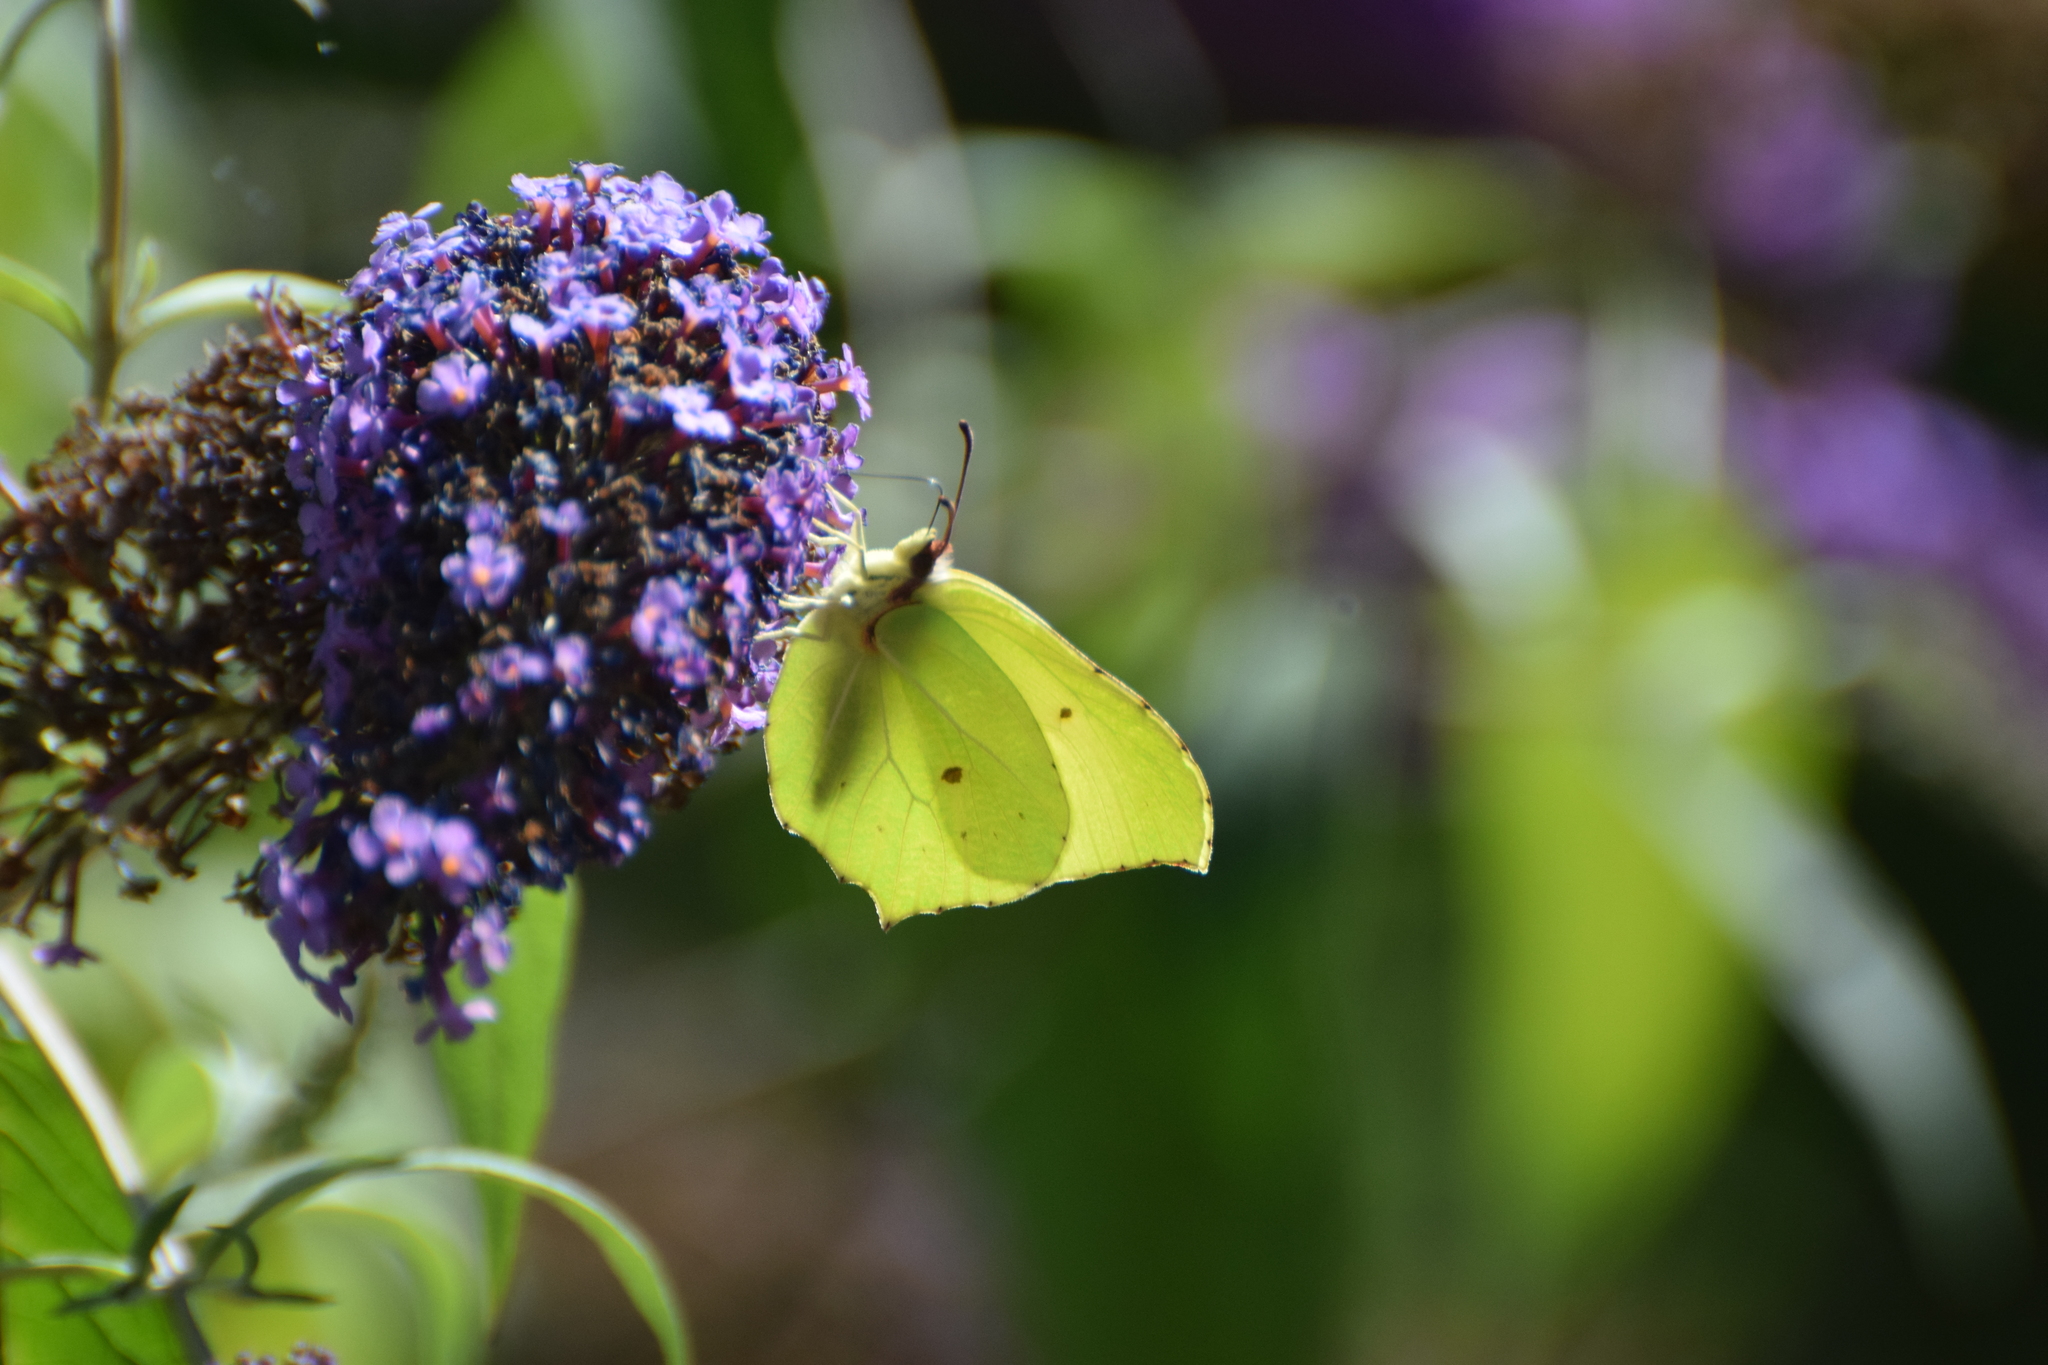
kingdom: Animalia
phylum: Arthropoda
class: Insecta
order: Lepidoptera
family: Pieridae
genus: Gonepteryx
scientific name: Gonepteryx rhamni
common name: Brimstone
